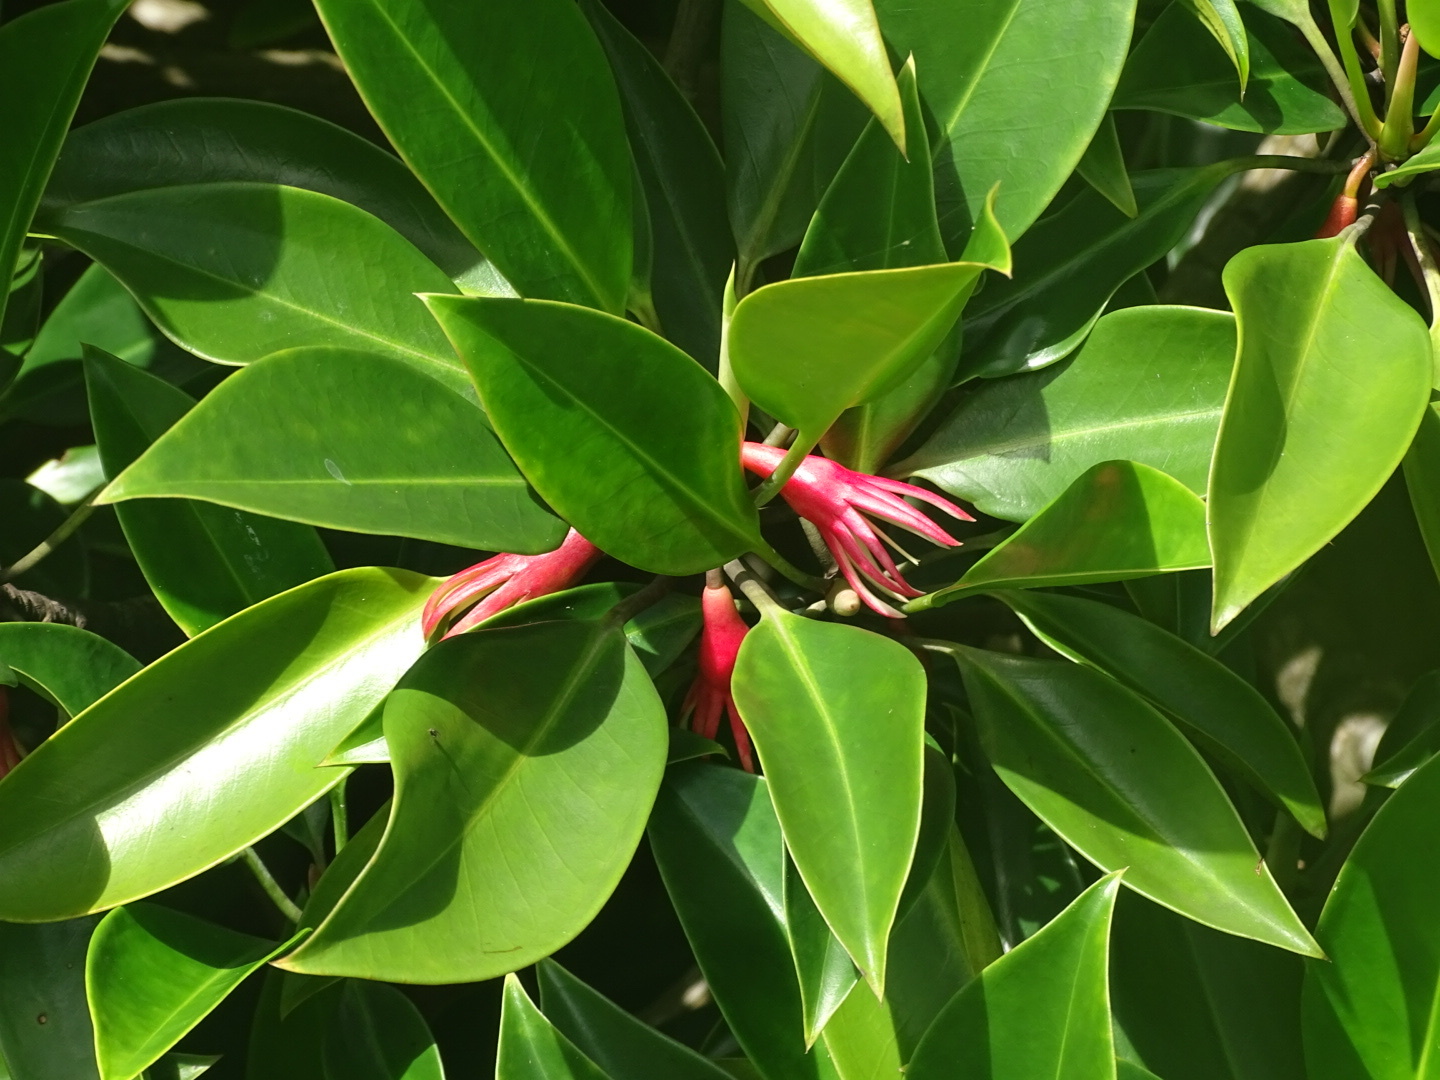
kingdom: Plantae
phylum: Tracheophyta
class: Magnoliopsida
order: Malpighiales
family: Rhizophoraceae
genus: Bruguiera
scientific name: Bruguiera gymnorhiza
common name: Oriental mangrove
